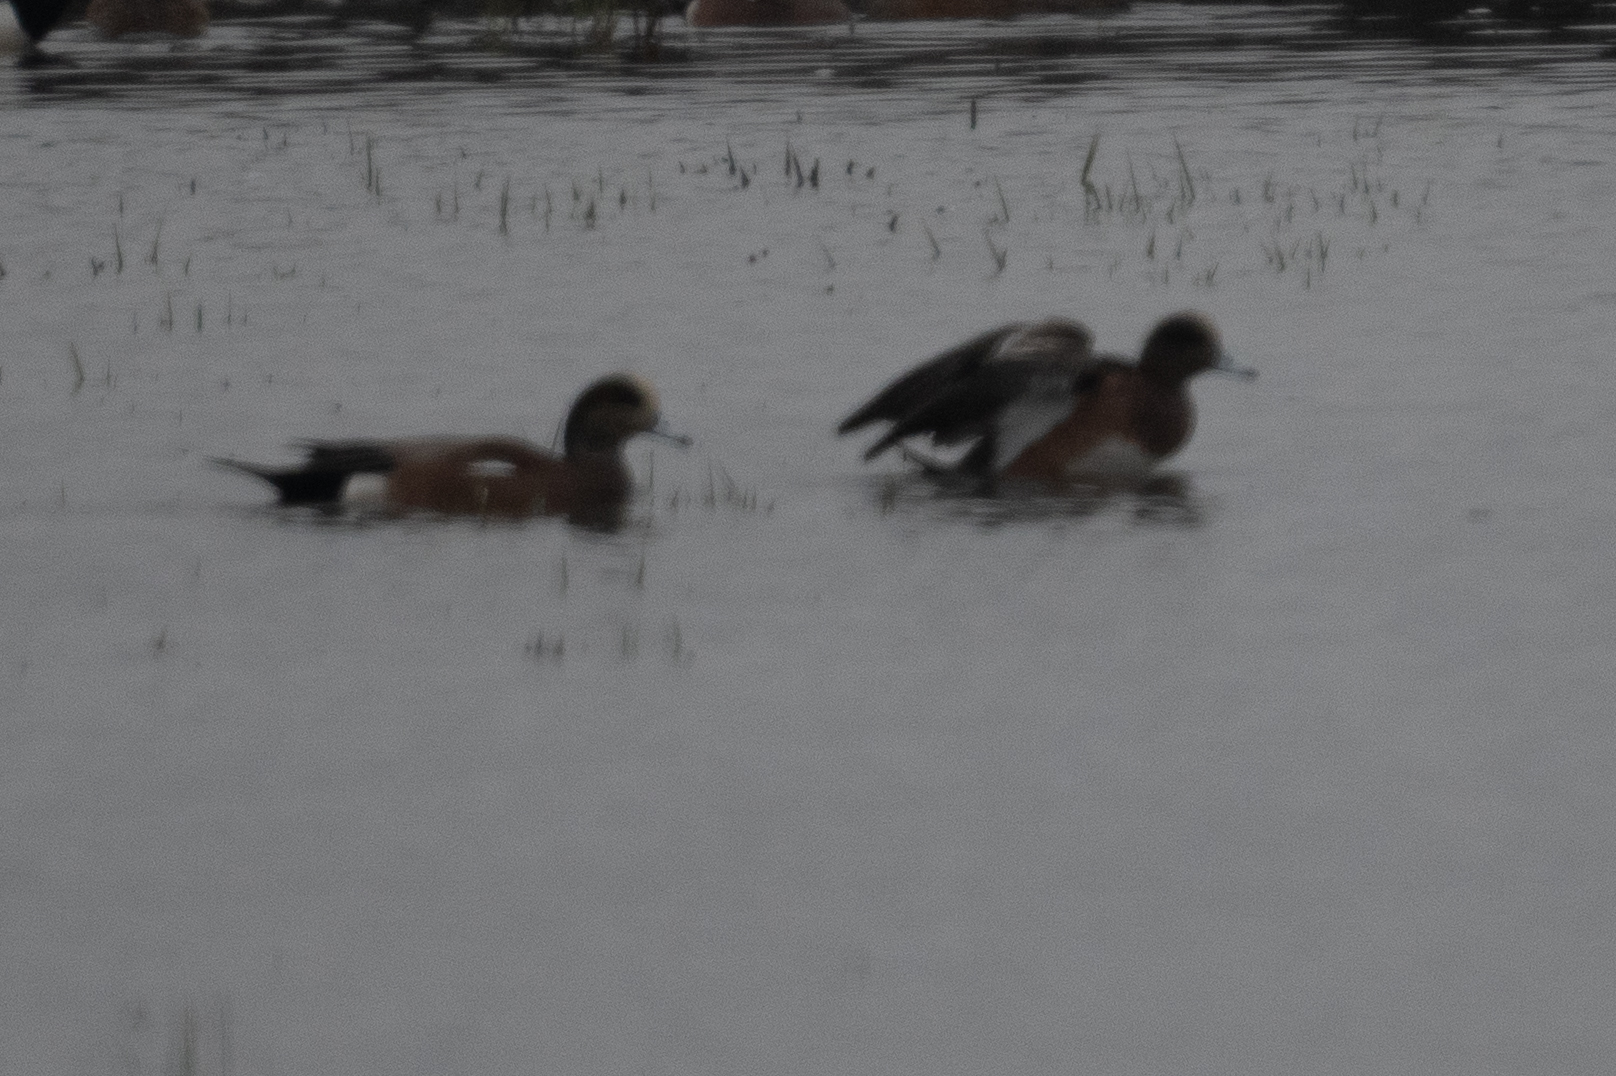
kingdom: Animalia
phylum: Chordata
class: Aves
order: Anseriformes
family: Anatidae
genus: Mareca
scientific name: Mareca americana
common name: American wigeon
